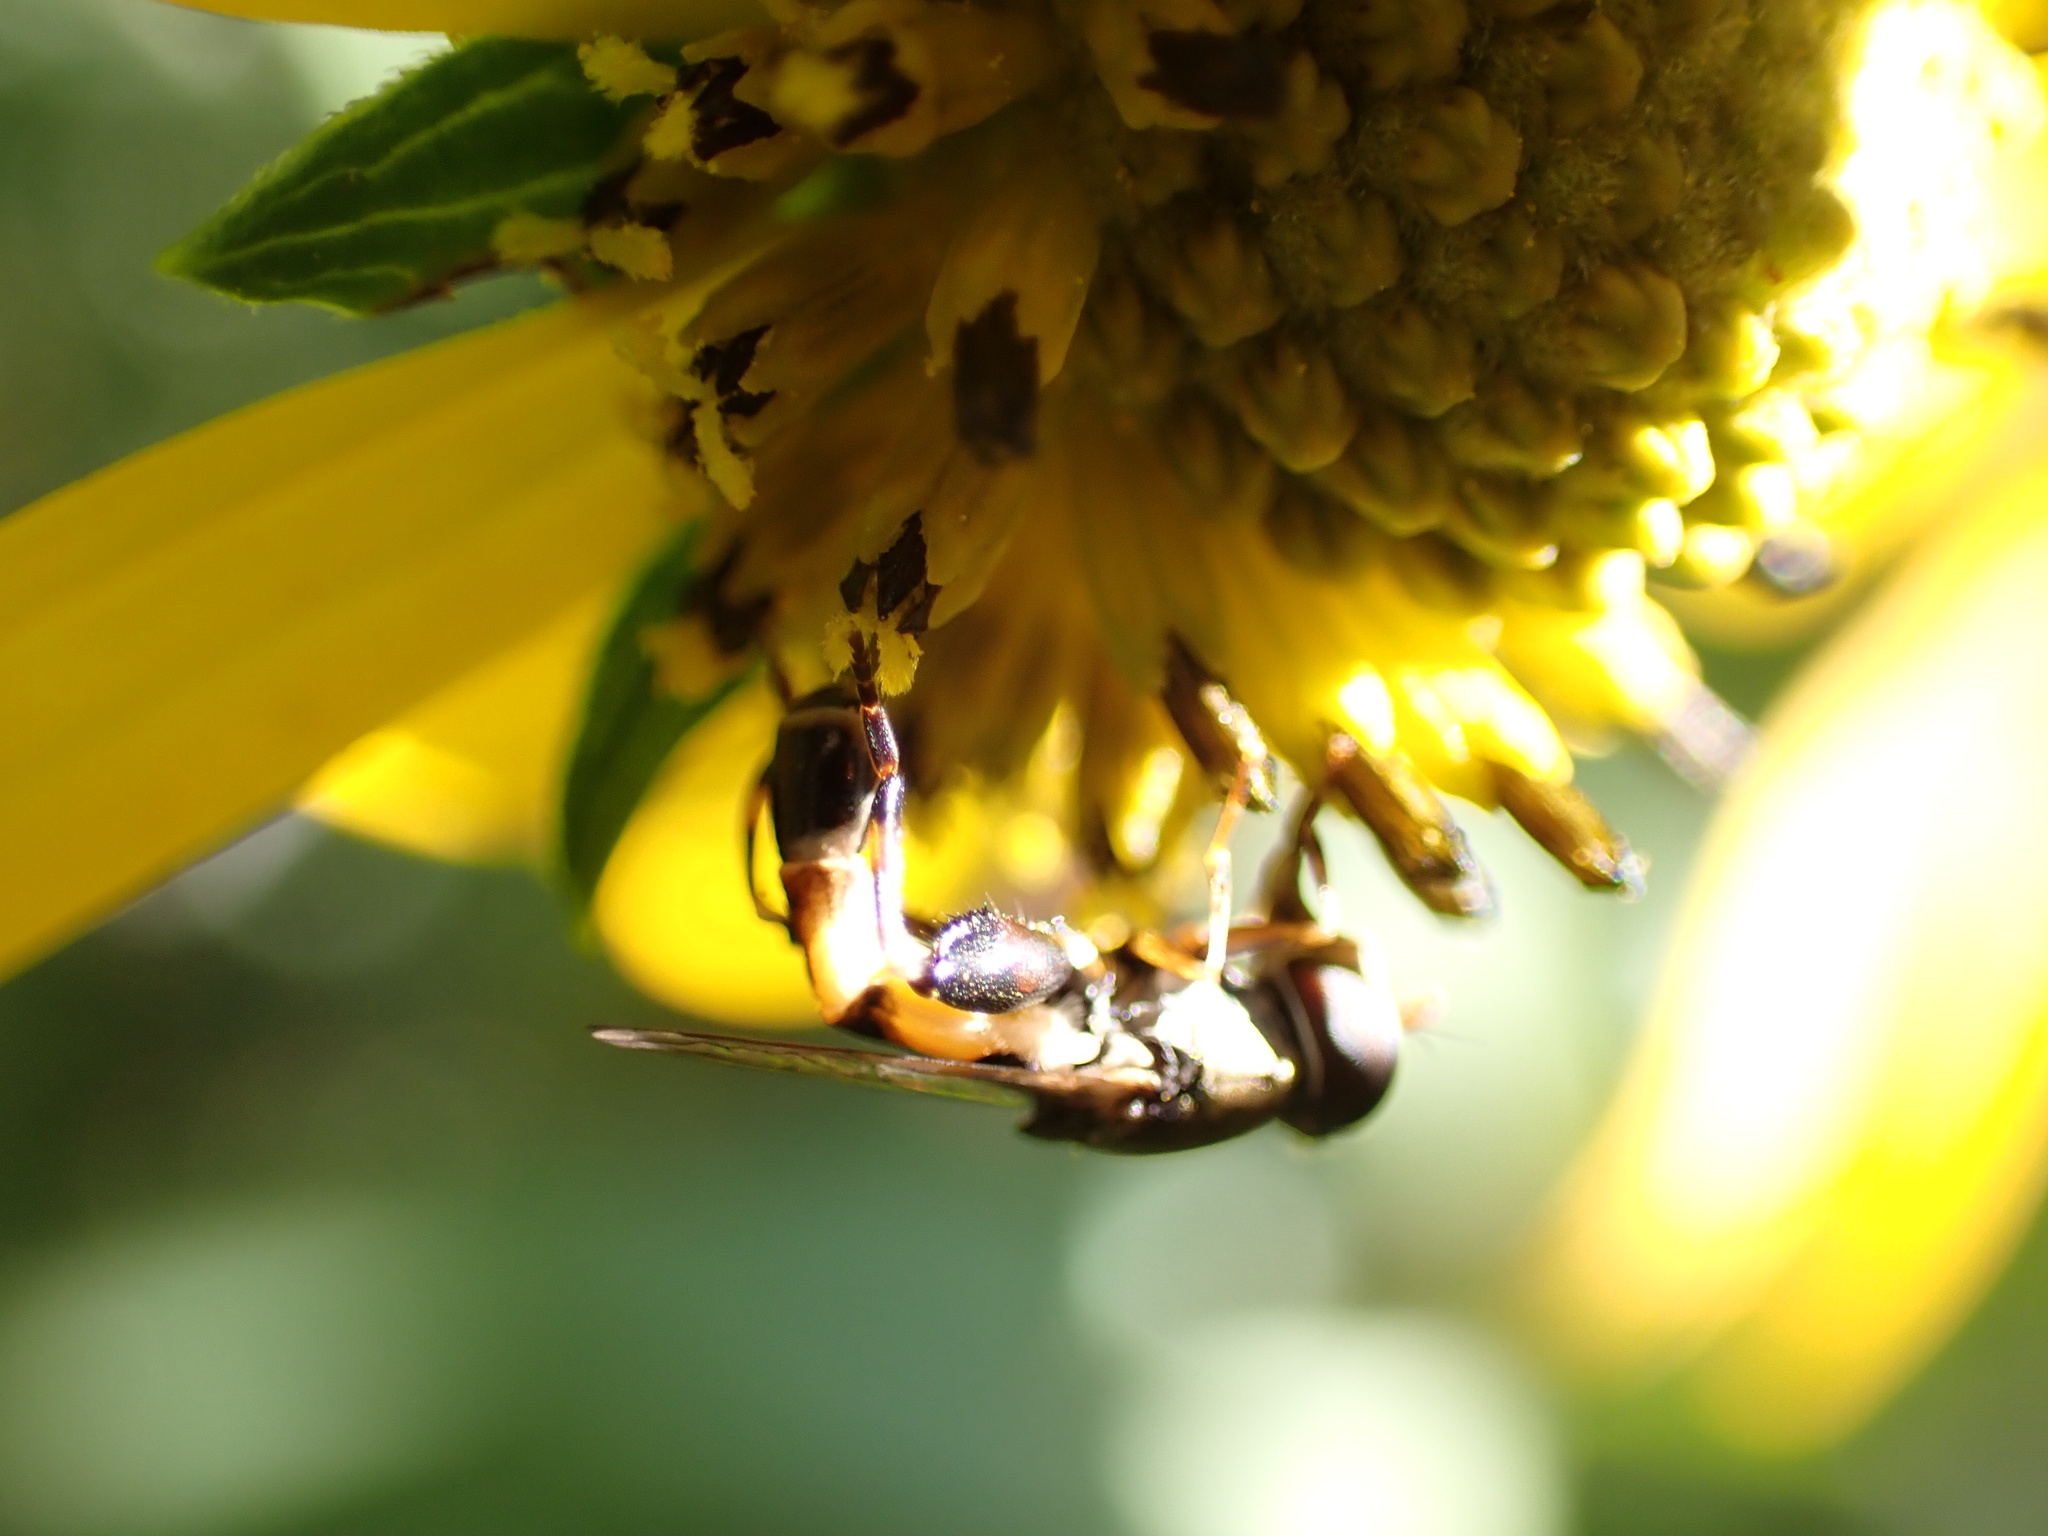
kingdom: Animalia
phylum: Arthropoda
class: Insecta
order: Diptera
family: Syrphidae
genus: Syritta
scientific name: Syritta pipiens
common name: Hover fly
